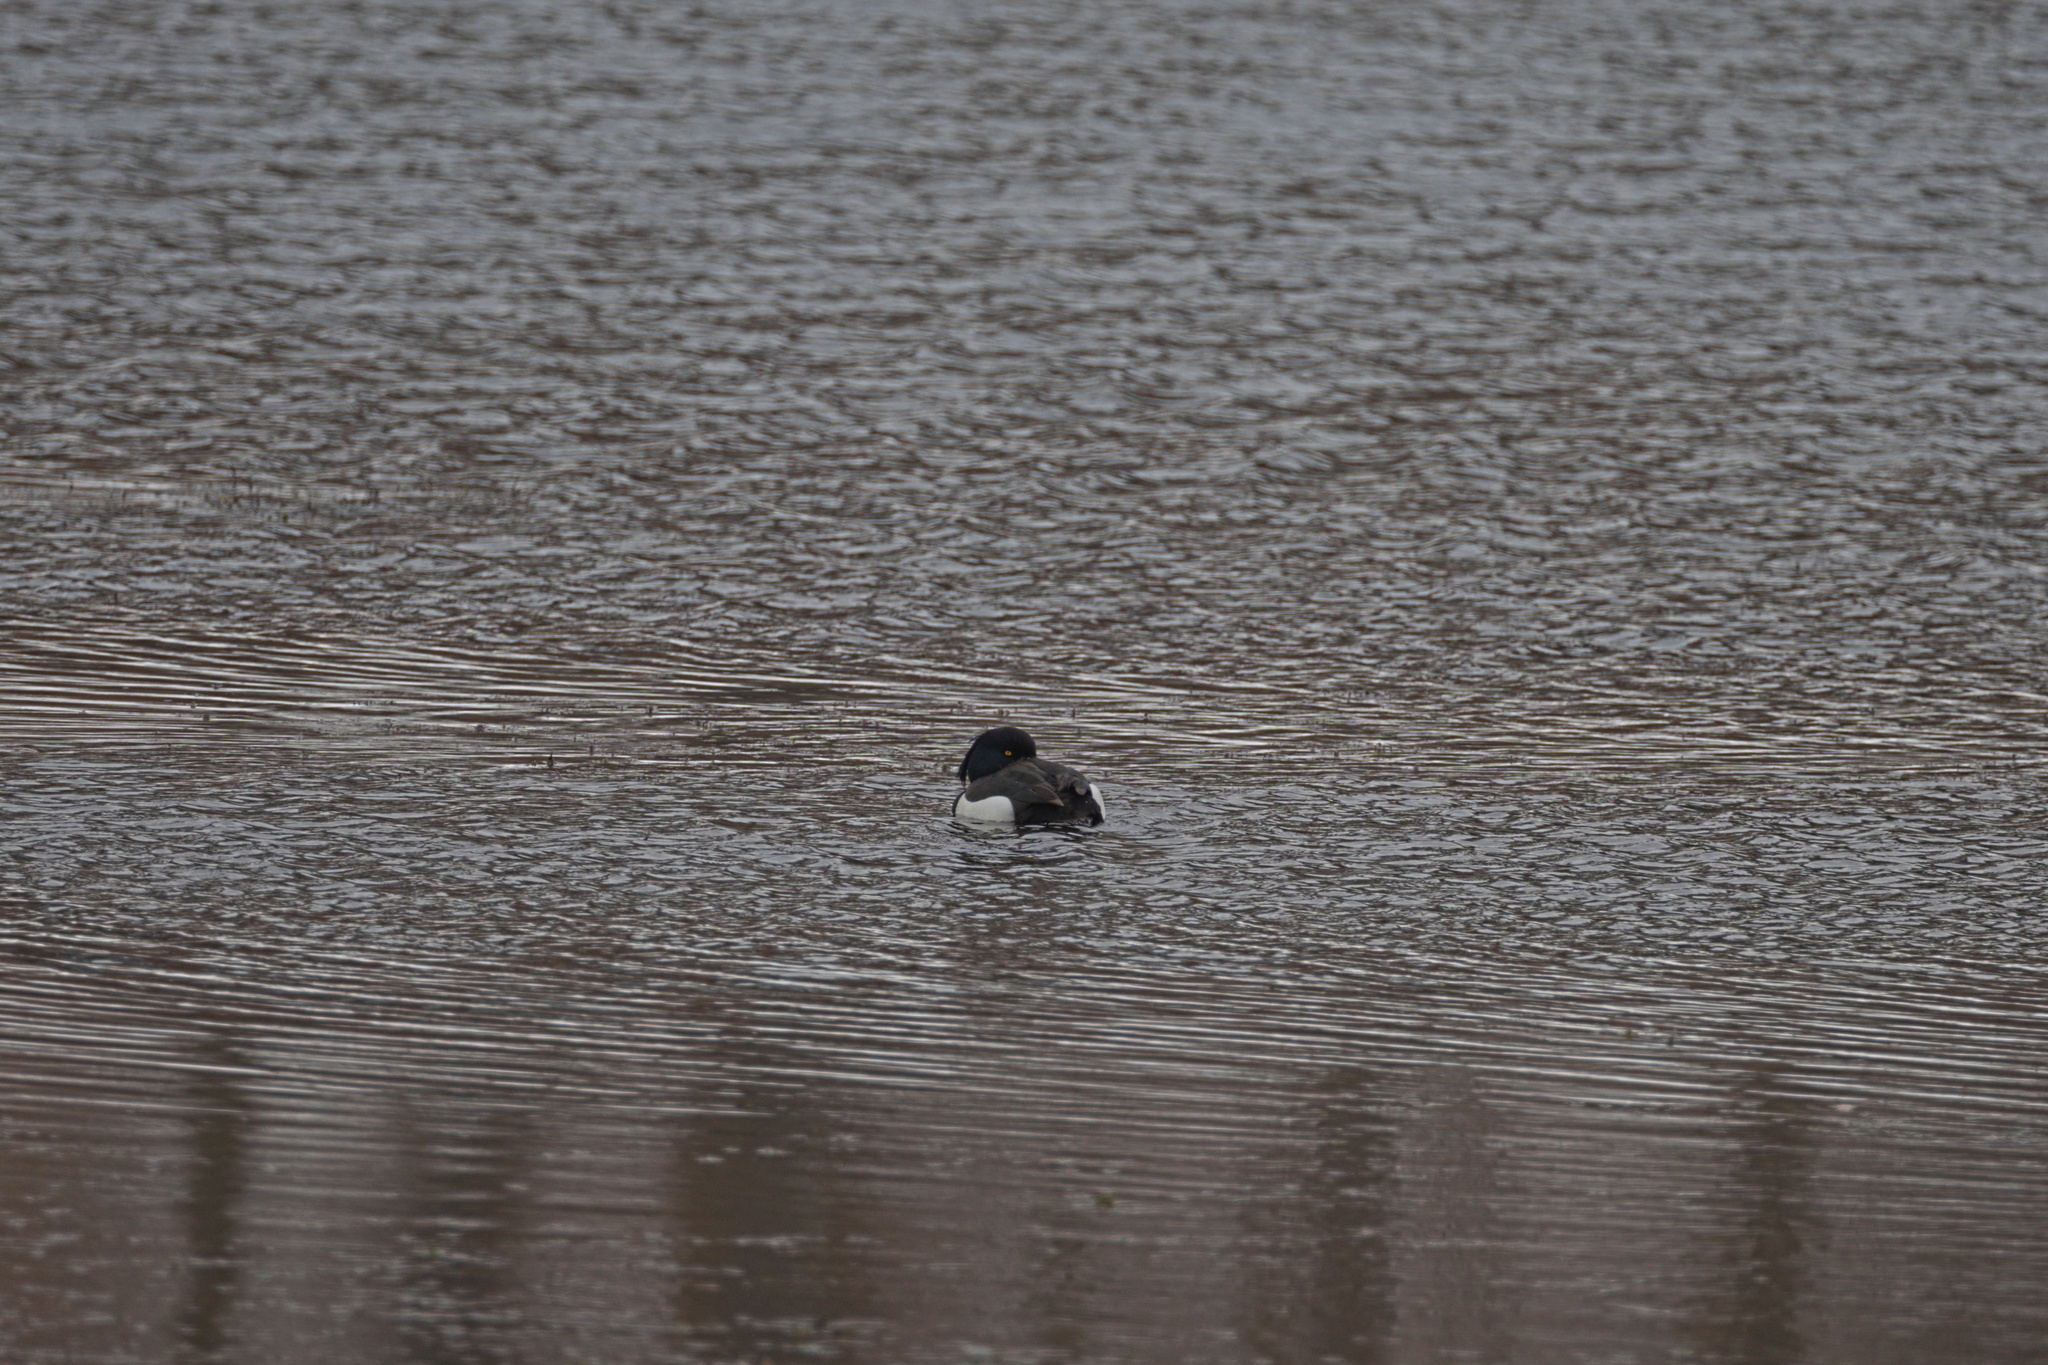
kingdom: Animalia
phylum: Chordata
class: Aves
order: Anseriformes
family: Anatidae
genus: Aythya
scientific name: Aythya fuligula
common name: Tufted duck
